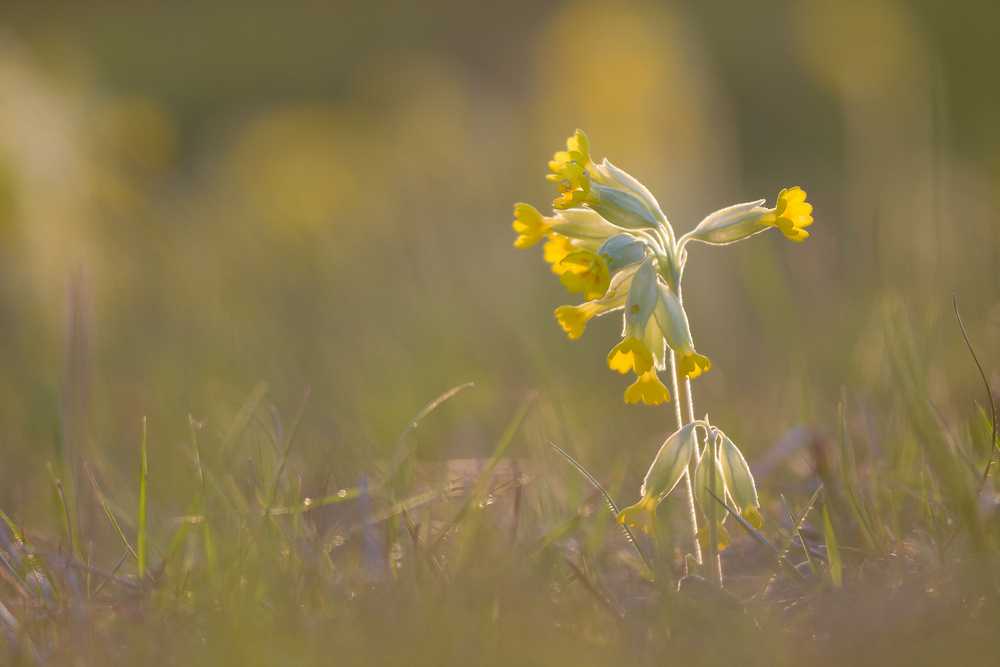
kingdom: Plantae
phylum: Tracheophyta
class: Magnoliopsida
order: Ericales
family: Primulaceae
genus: Primula
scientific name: Primula veris
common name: Cowslip
